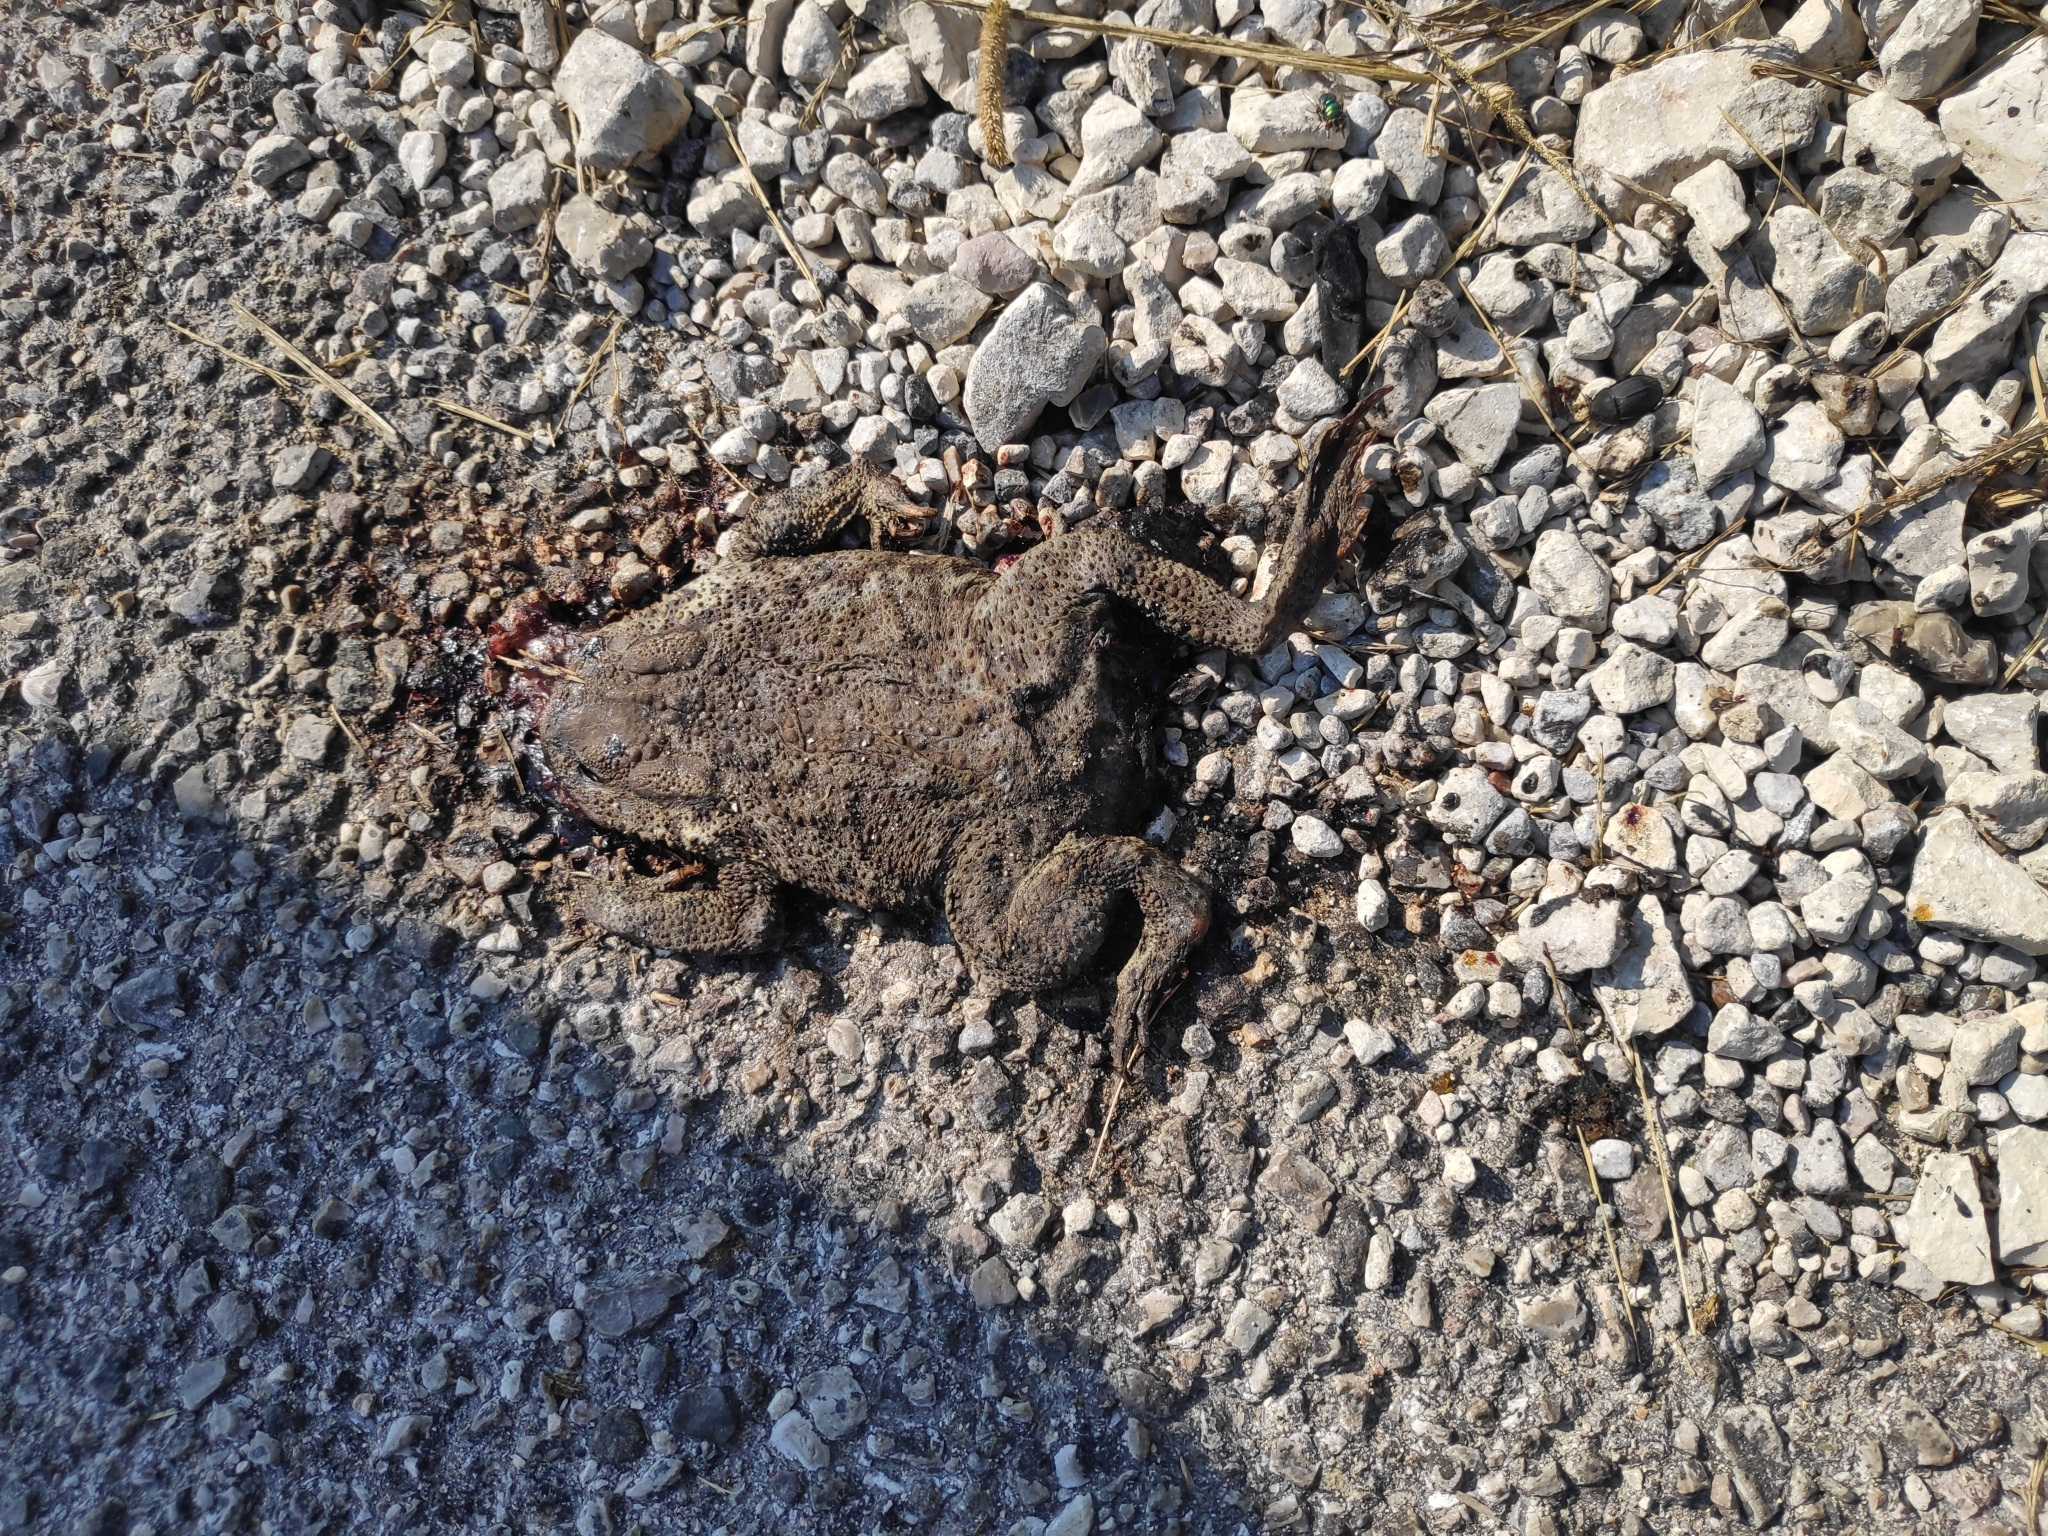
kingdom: Animalia
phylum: Chordata
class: Amphibia
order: Anura
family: Bufonidae
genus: Bufo
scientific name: Bufo bufo
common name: Common toad
